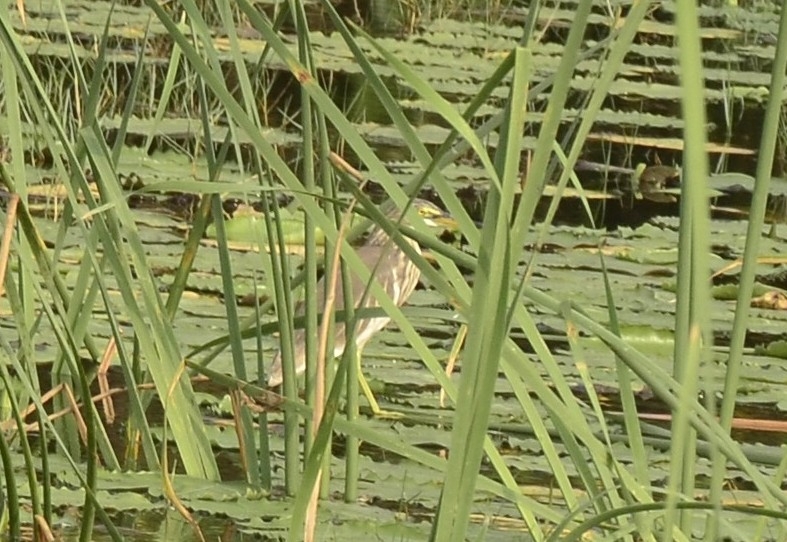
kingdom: Animalia
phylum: Chordata
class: Aves
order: Pelecaniformes
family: Ardeidae
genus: Ardeola
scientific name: Ardeola grayii
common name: Indian pond heron
